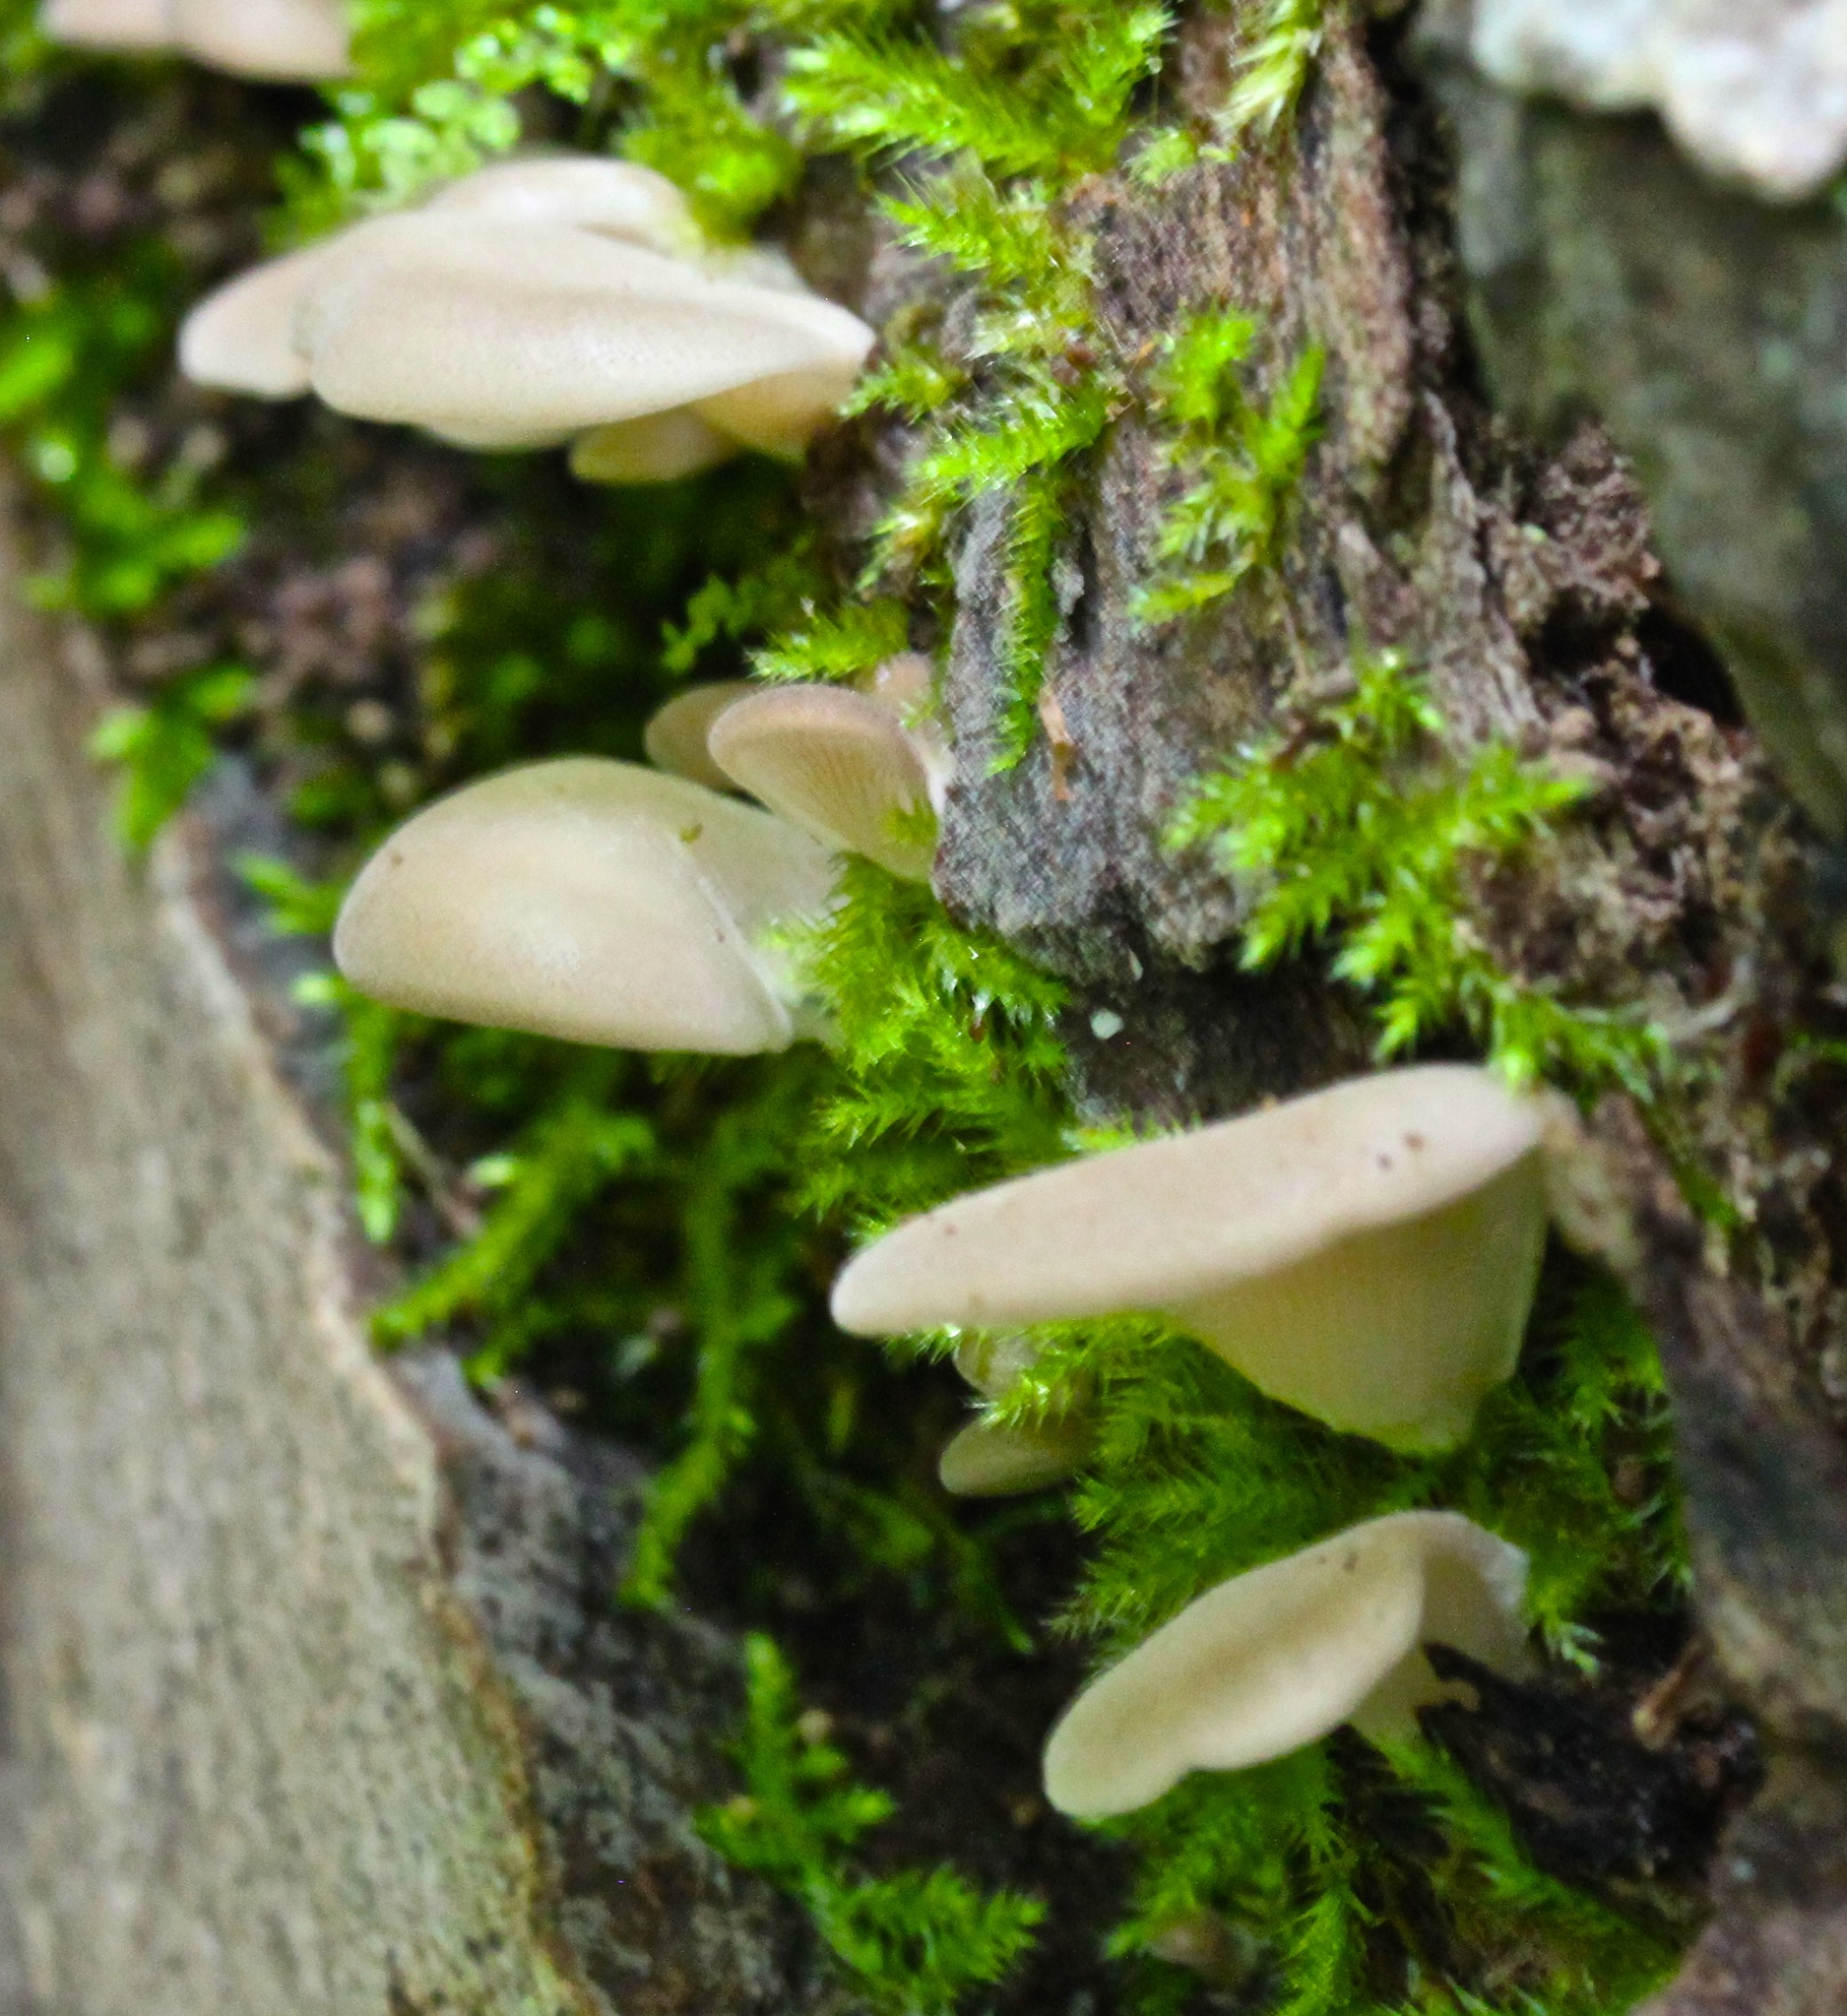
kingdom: Fungi
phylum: Basidiomycota
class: Agaricomycetes
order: Agaricales
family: Pleurotaceae
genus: Hohenbuehelia
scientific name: Hohenbuehelia petaloides
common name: Shoehorn oyster
